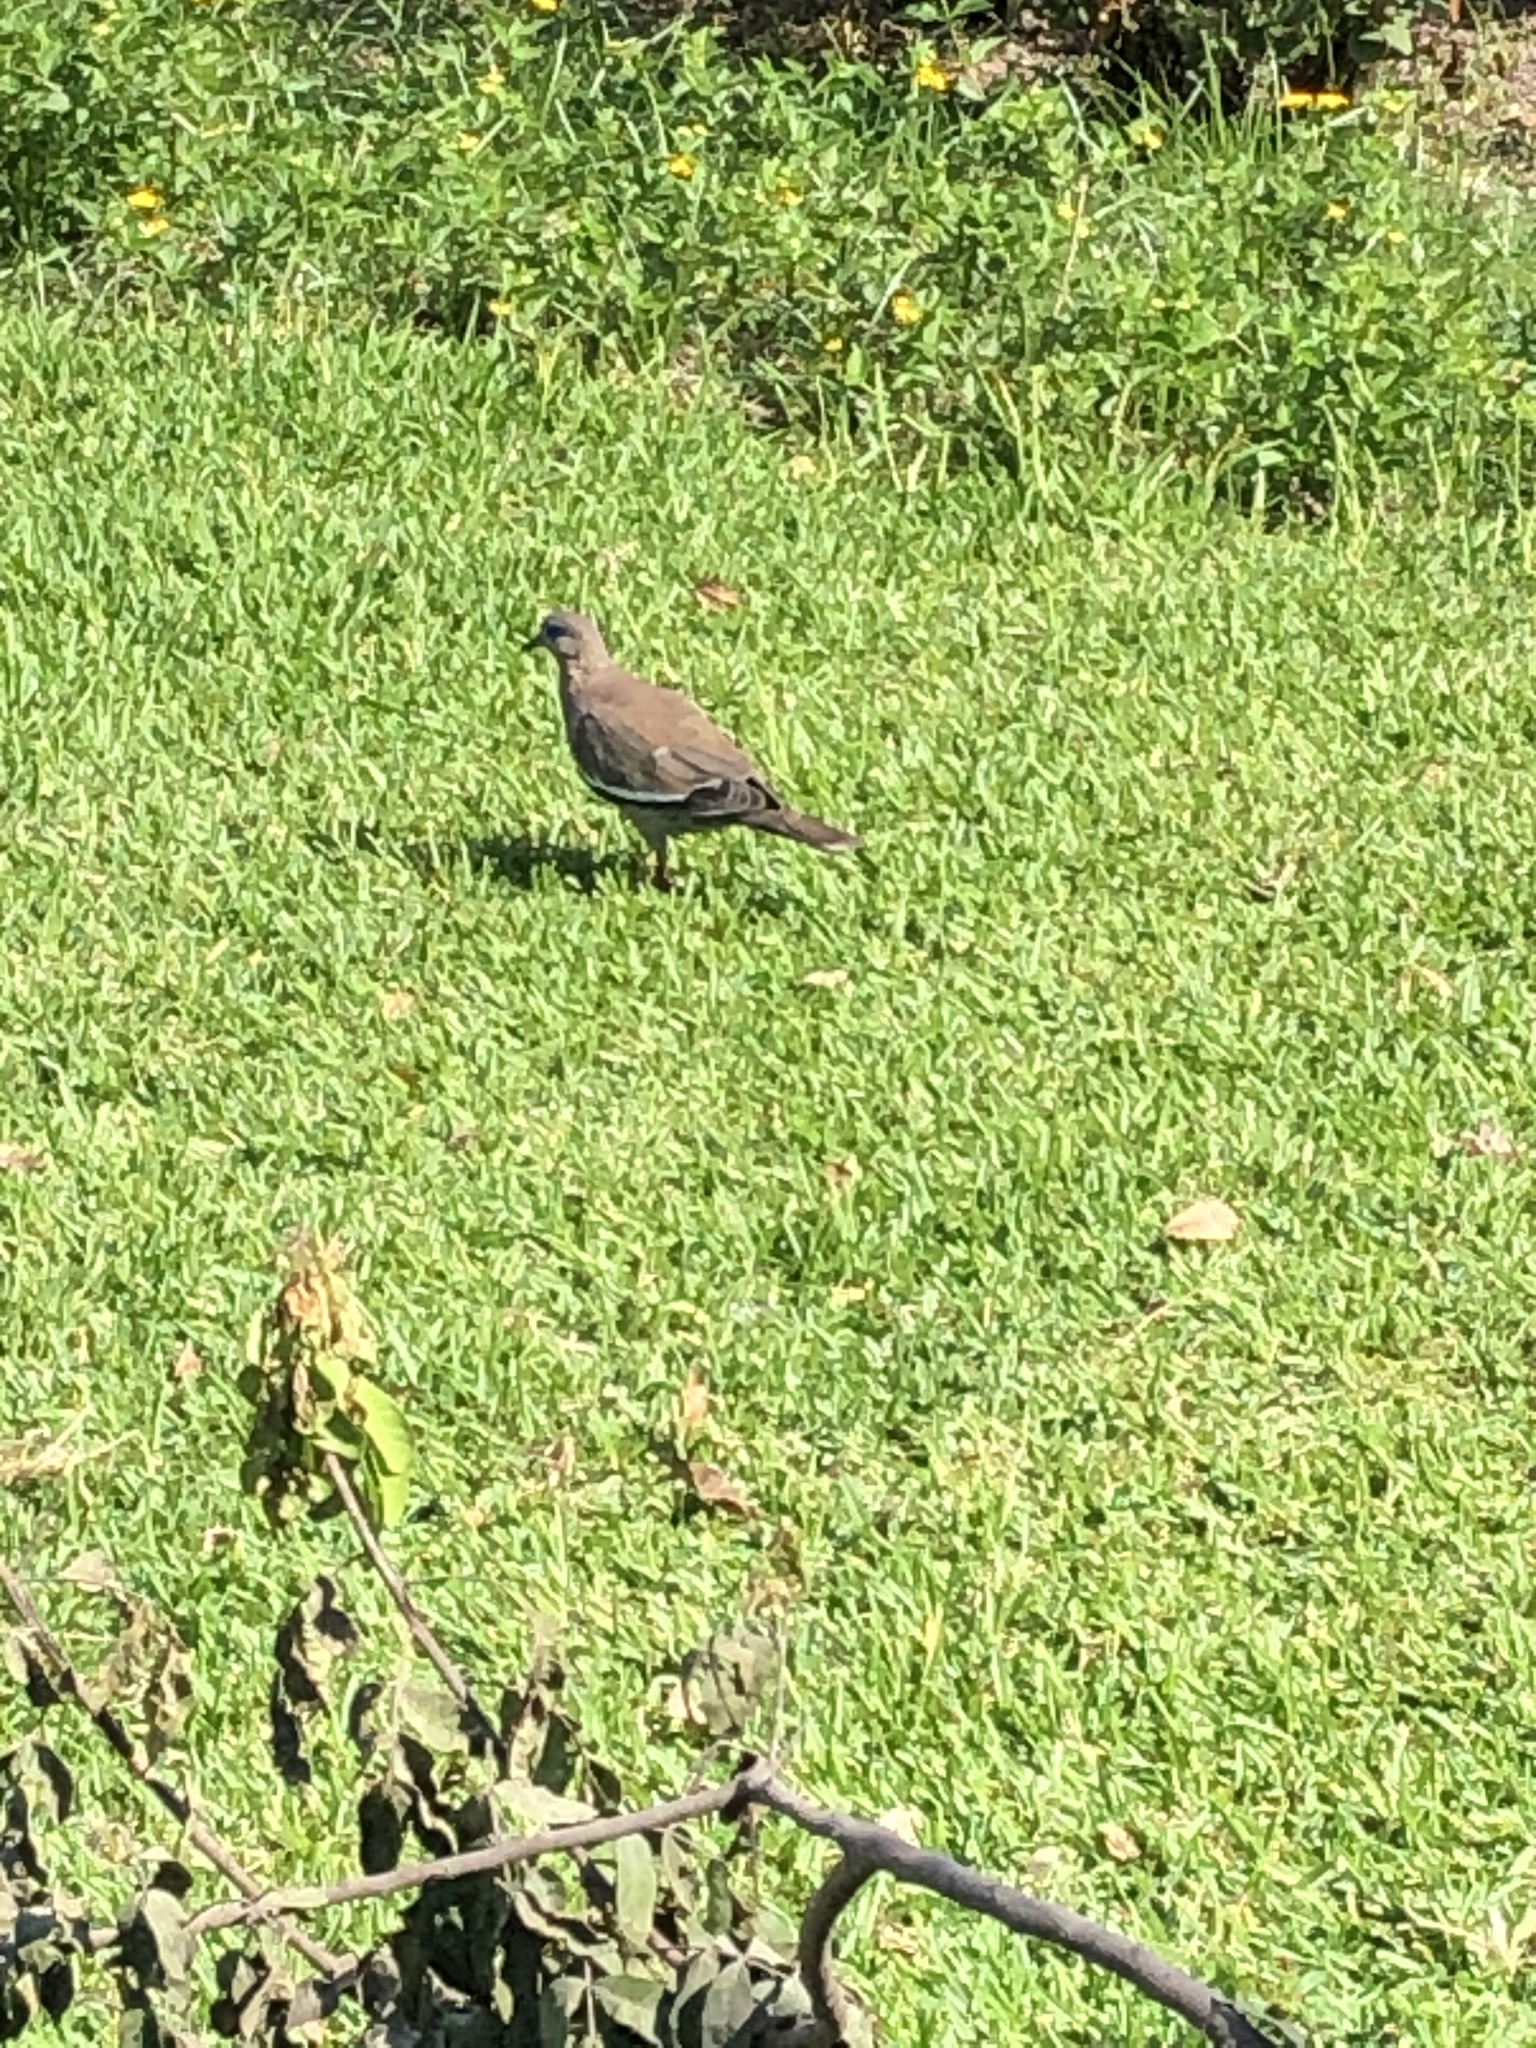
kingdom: Animalia
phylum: Chordata
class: Aves
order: Columbiformes
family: Columbidae
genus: Zenaida
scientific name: Zenaida meloda
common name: West peruvian dove
